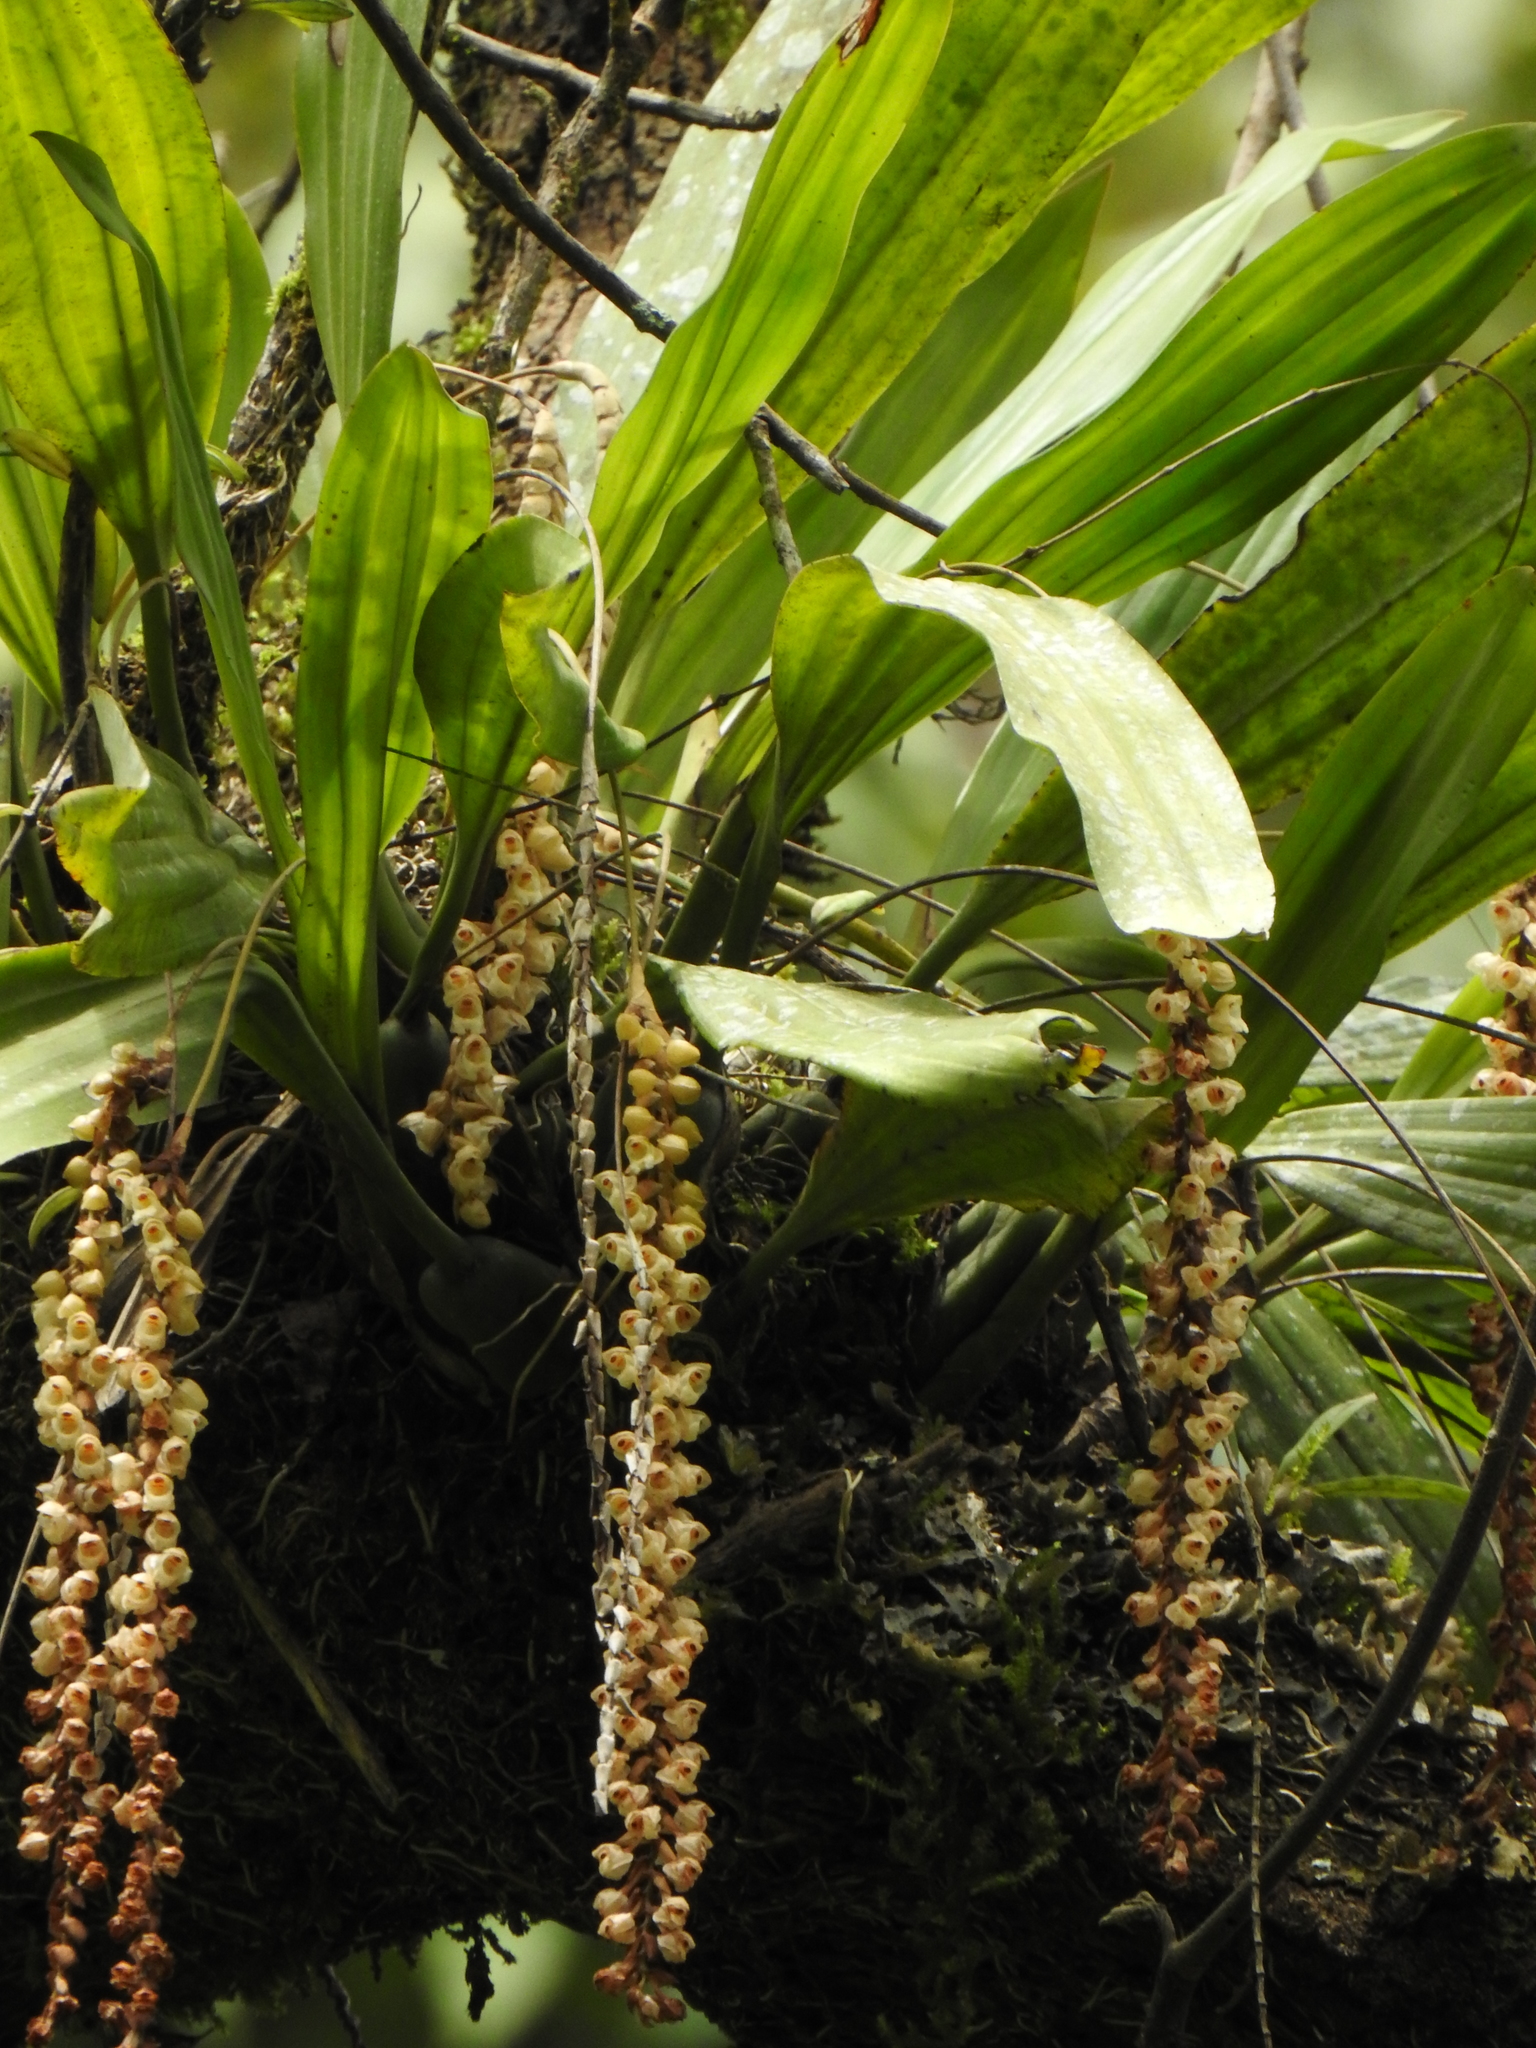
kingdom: Plantae
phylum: Tracheophyta
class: Liliopsida
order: Asparagales
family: Orchidaceae
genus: Pholidota
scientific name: Pholidota imbricata
